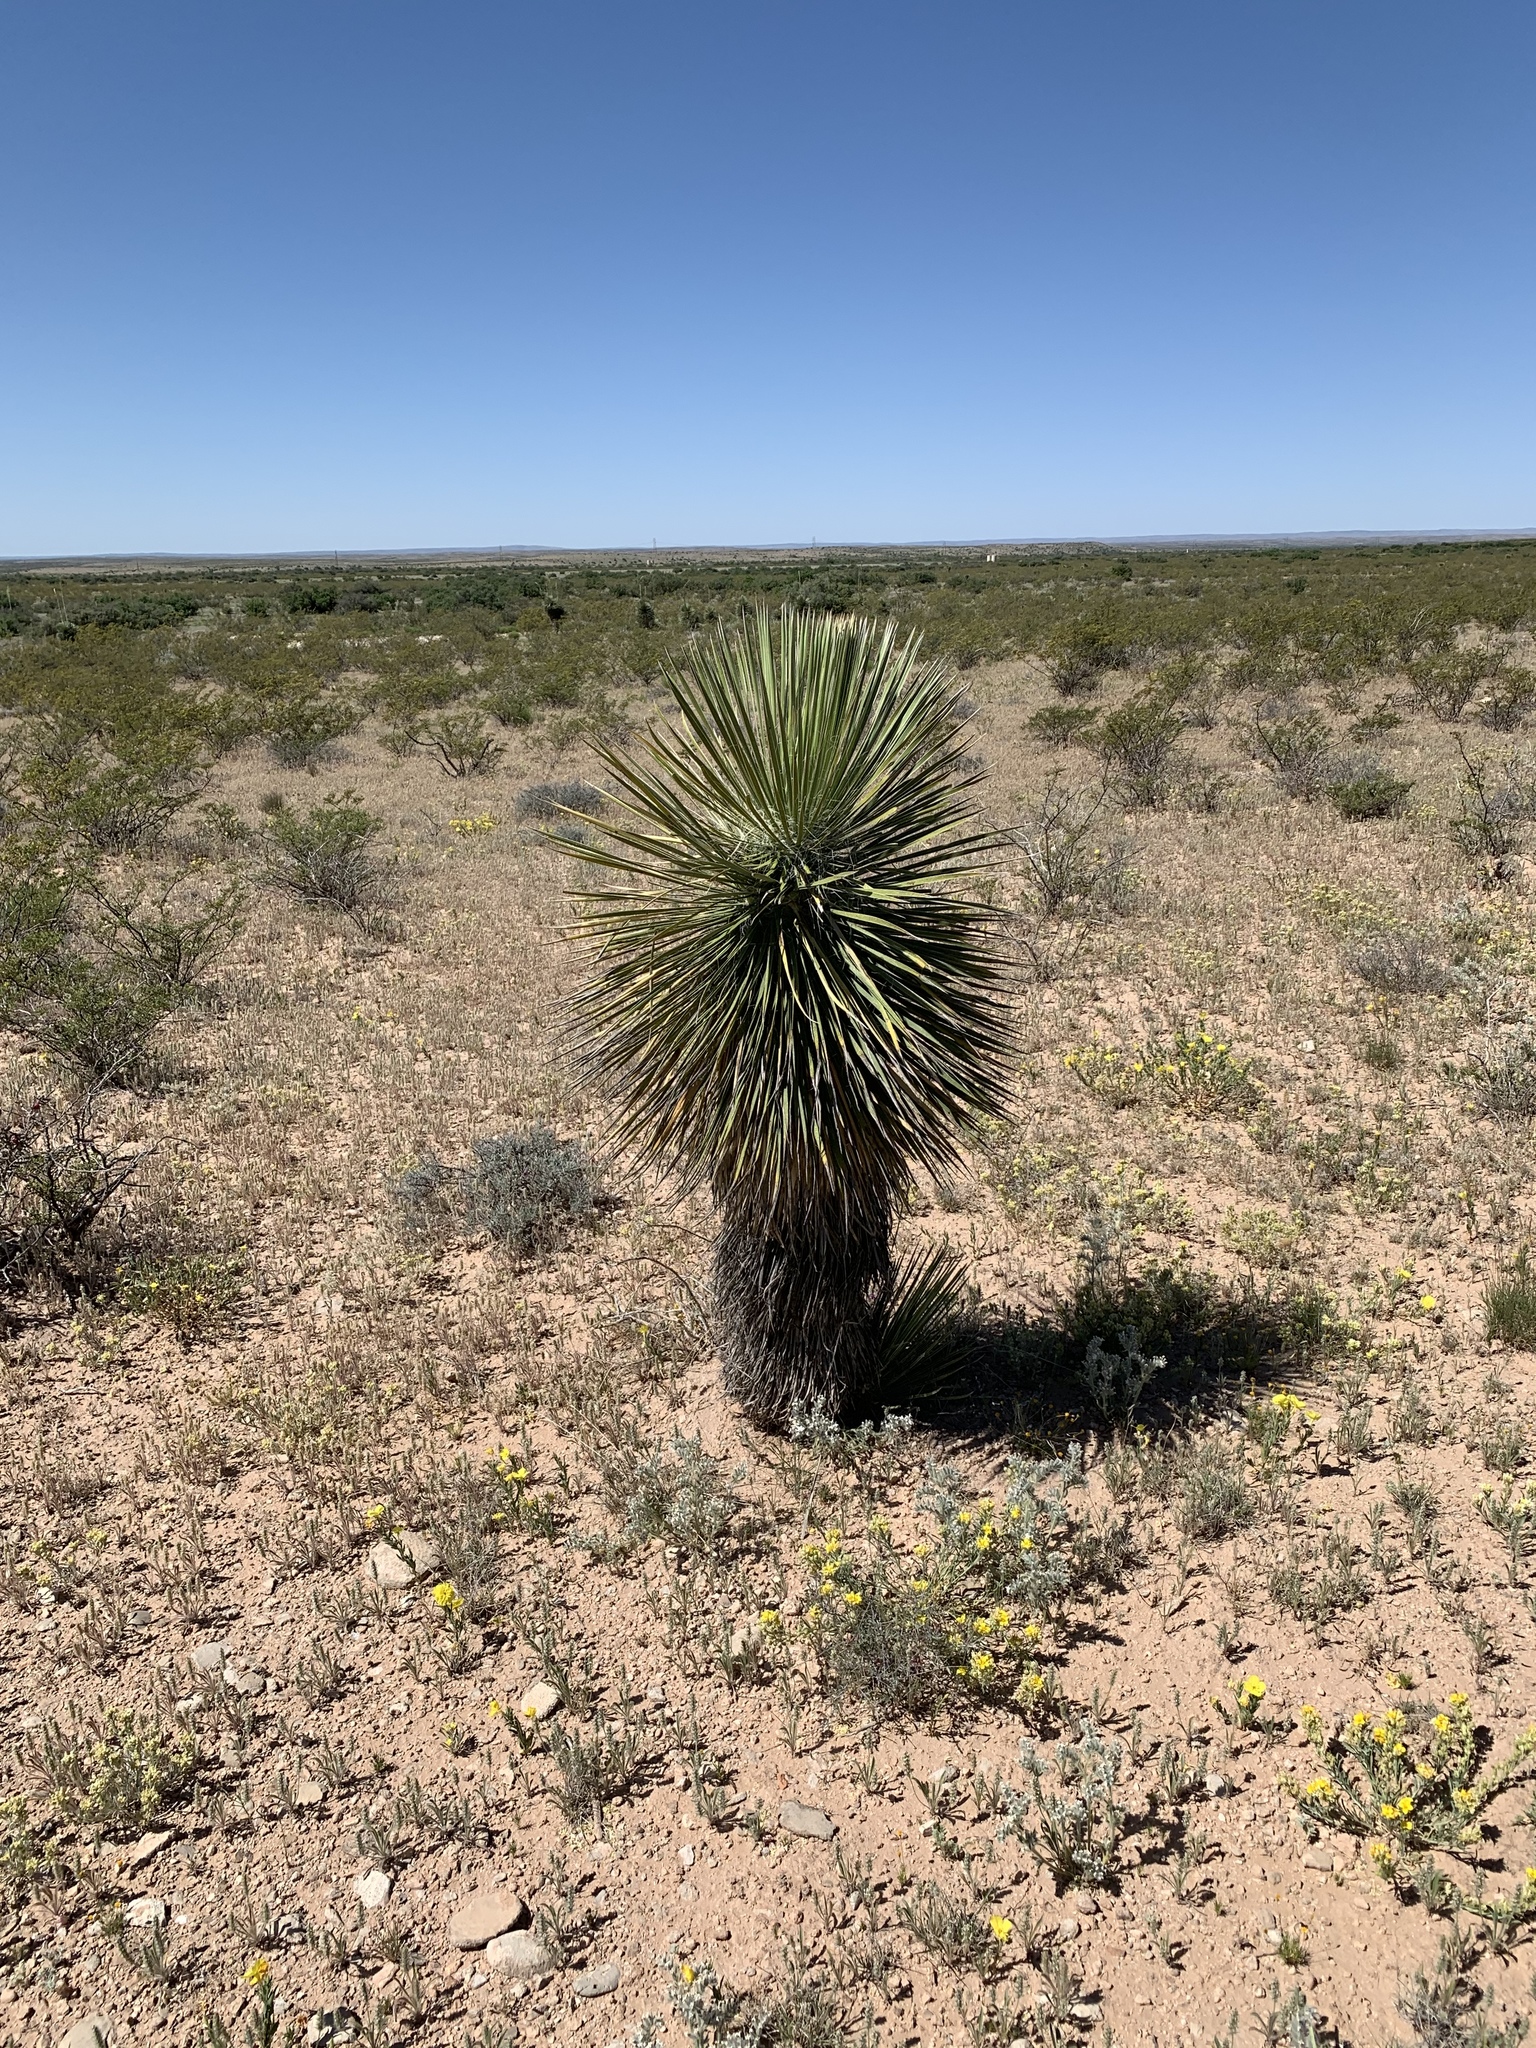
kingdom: Plantae
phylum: Tracheophyta
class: Liliopsida
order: Asparagales
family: Asparagaceae
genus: Yucca
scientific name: Yucca elata
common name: Palmella
